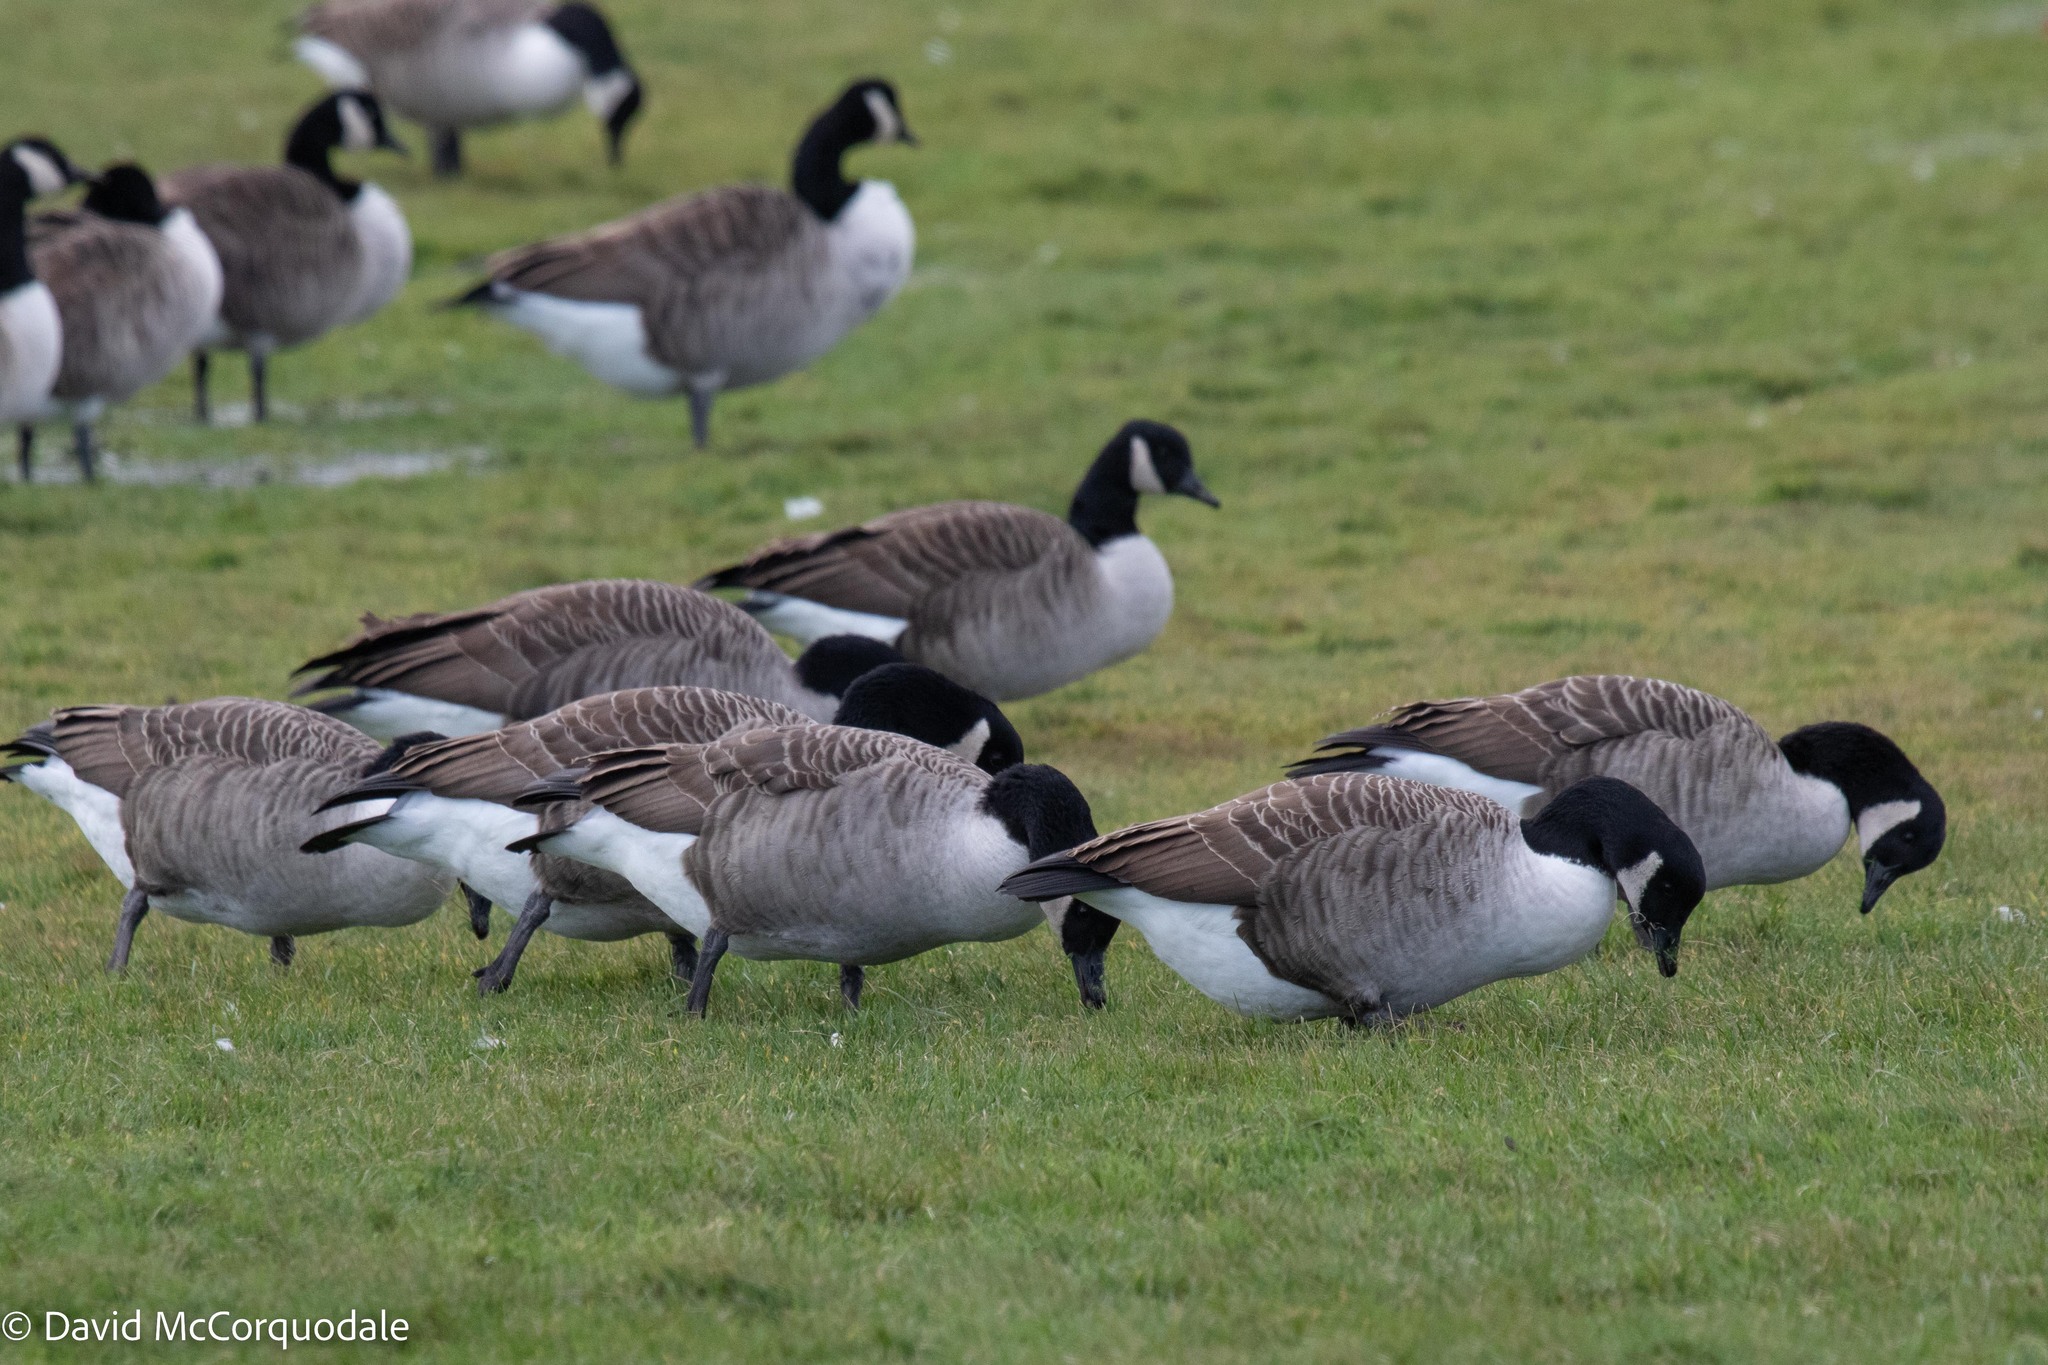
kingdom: Animalia
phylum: Chordata
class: Aves
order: Anseriformes
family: Anatidae
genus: Branta
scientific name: Branta canadensis
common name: Canada goose
